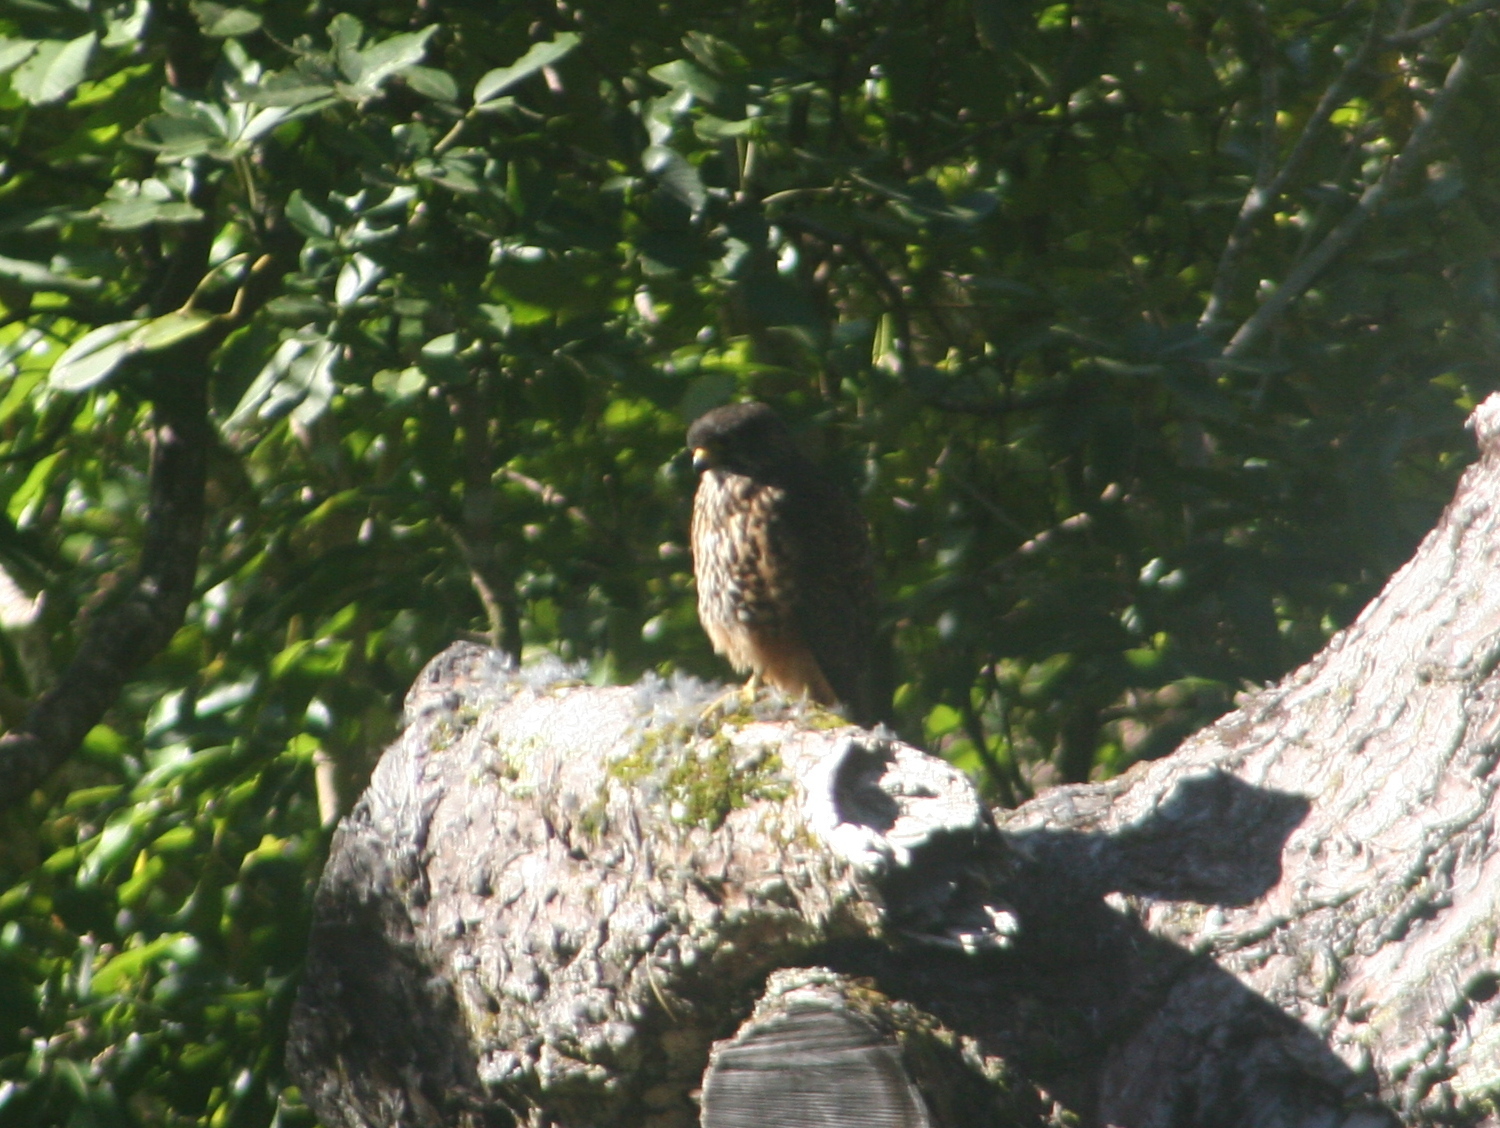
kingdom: Animalia
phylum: Chordata
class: Aves
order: Falconiformes
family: Falconidae
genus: Falco
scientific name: Falco novaeseelandiae
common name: New zealand falcon
